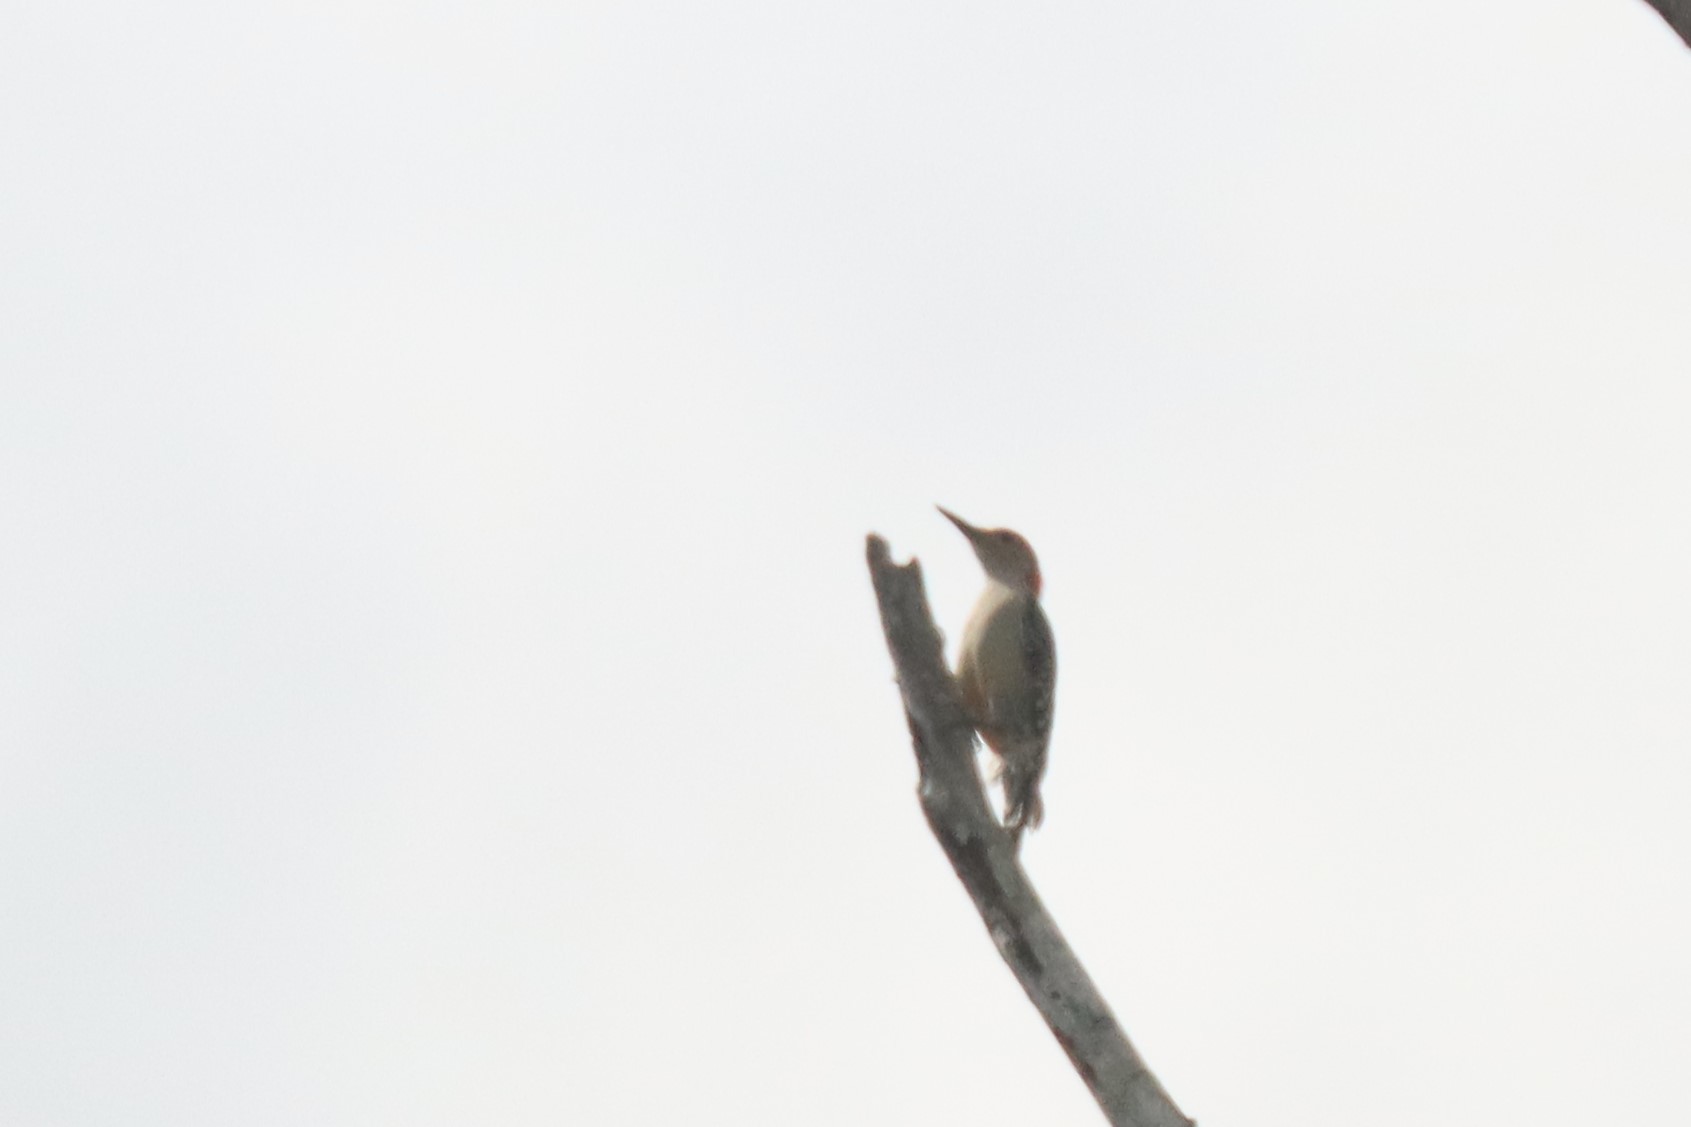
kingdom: Animalia
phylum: Chordata
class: Aves
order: Piciformes
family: Picidae
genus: Melanerpes
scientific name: Melanerpes carolinus
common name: Red-bellied woodpecker
